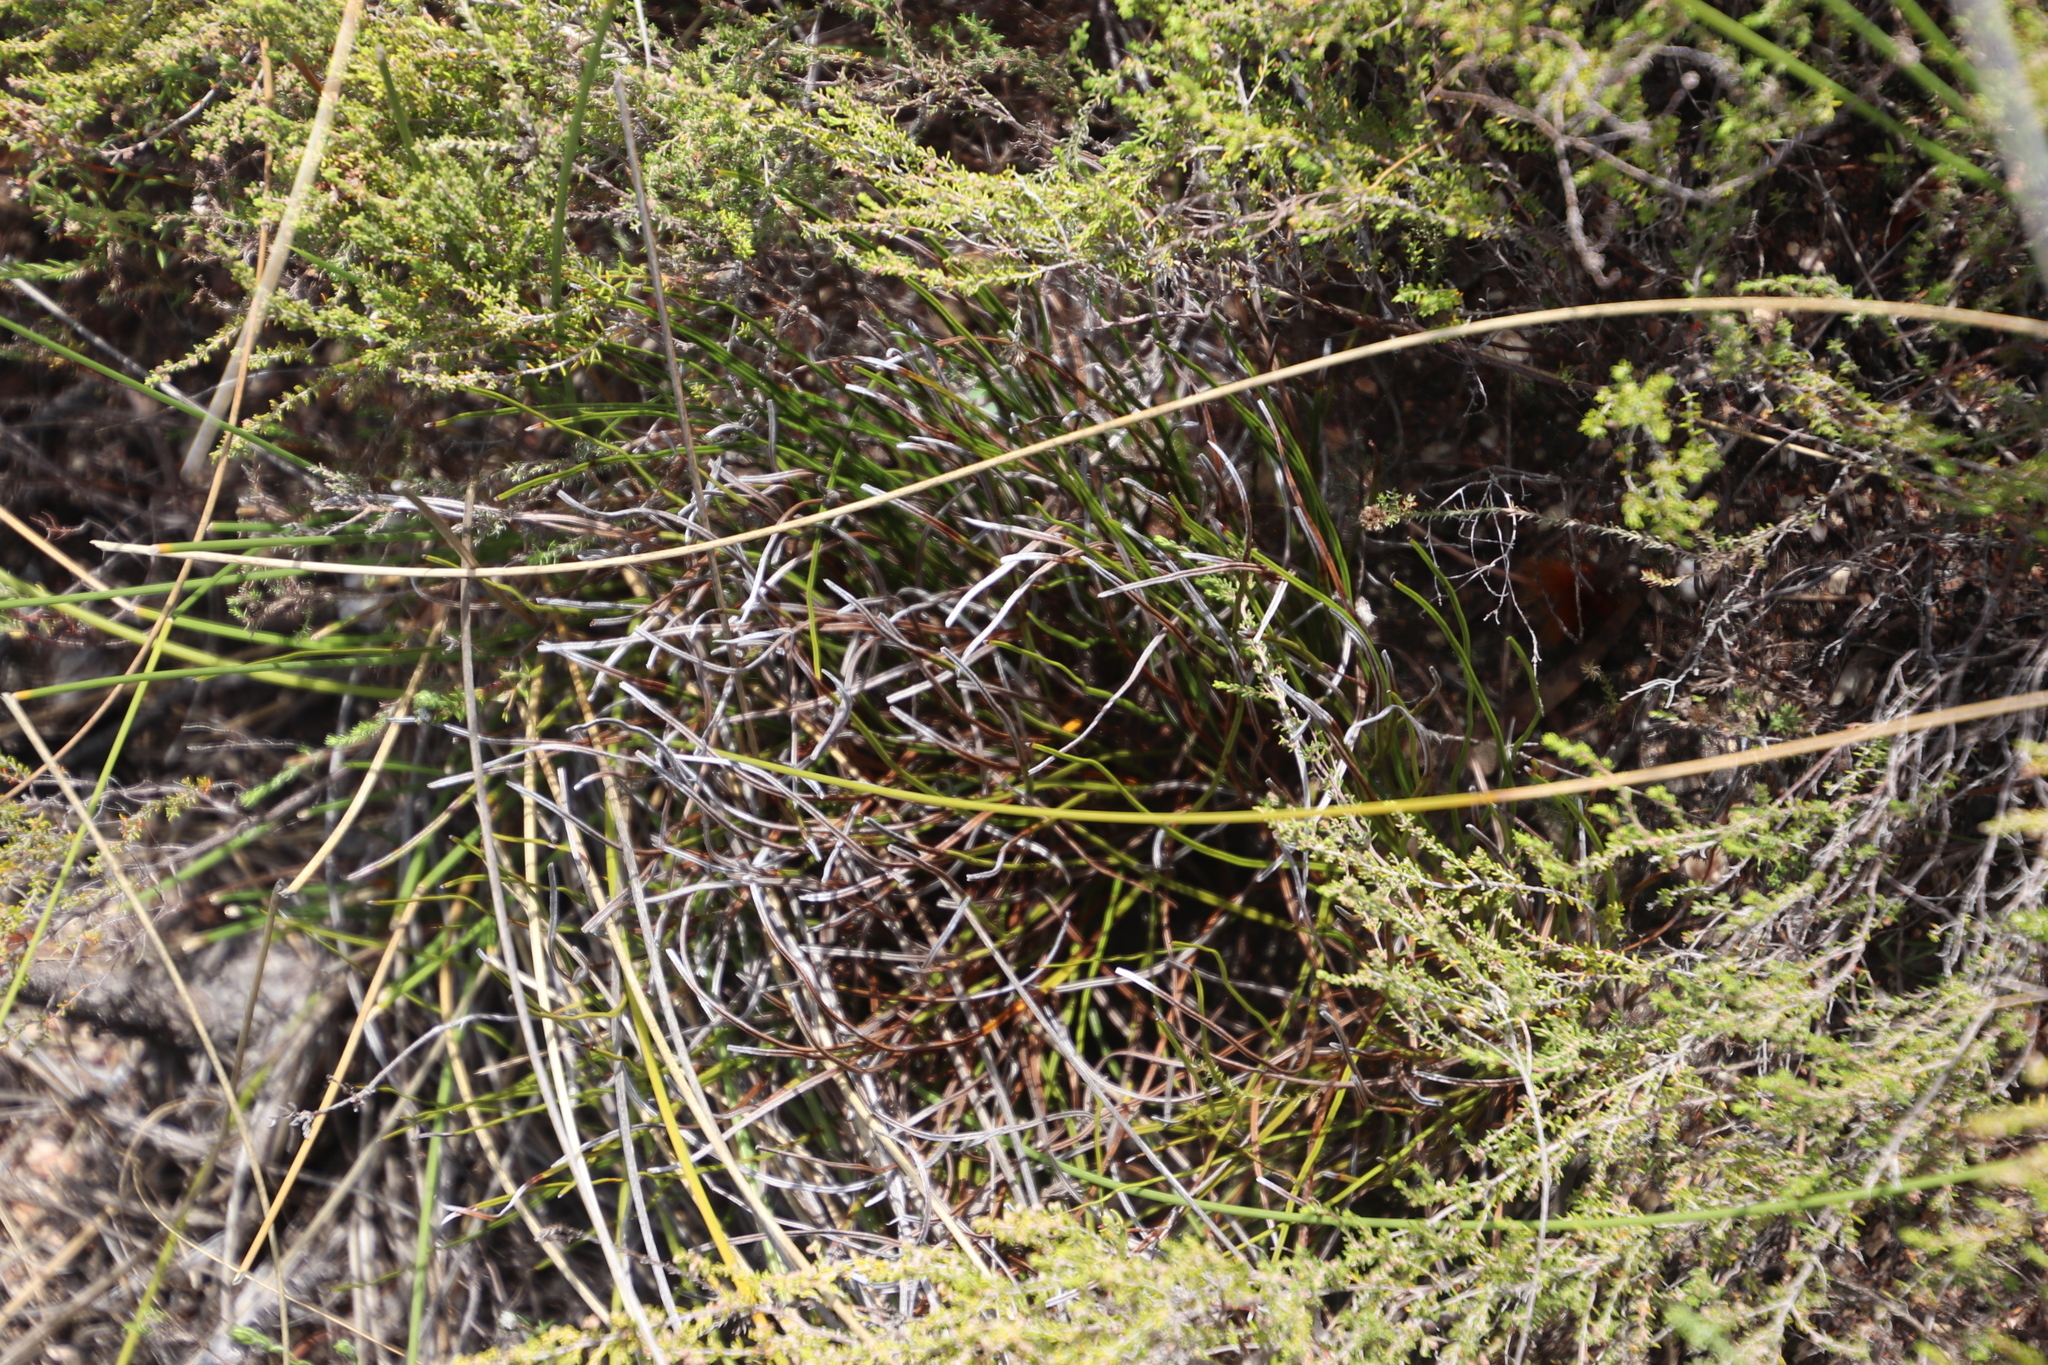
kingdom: Plantae
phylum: Tracheophyta
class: Polypodiopsida
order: Schizaeales
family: Schizaeaceae
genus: Schizaea
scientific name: Schizaea pectinata
